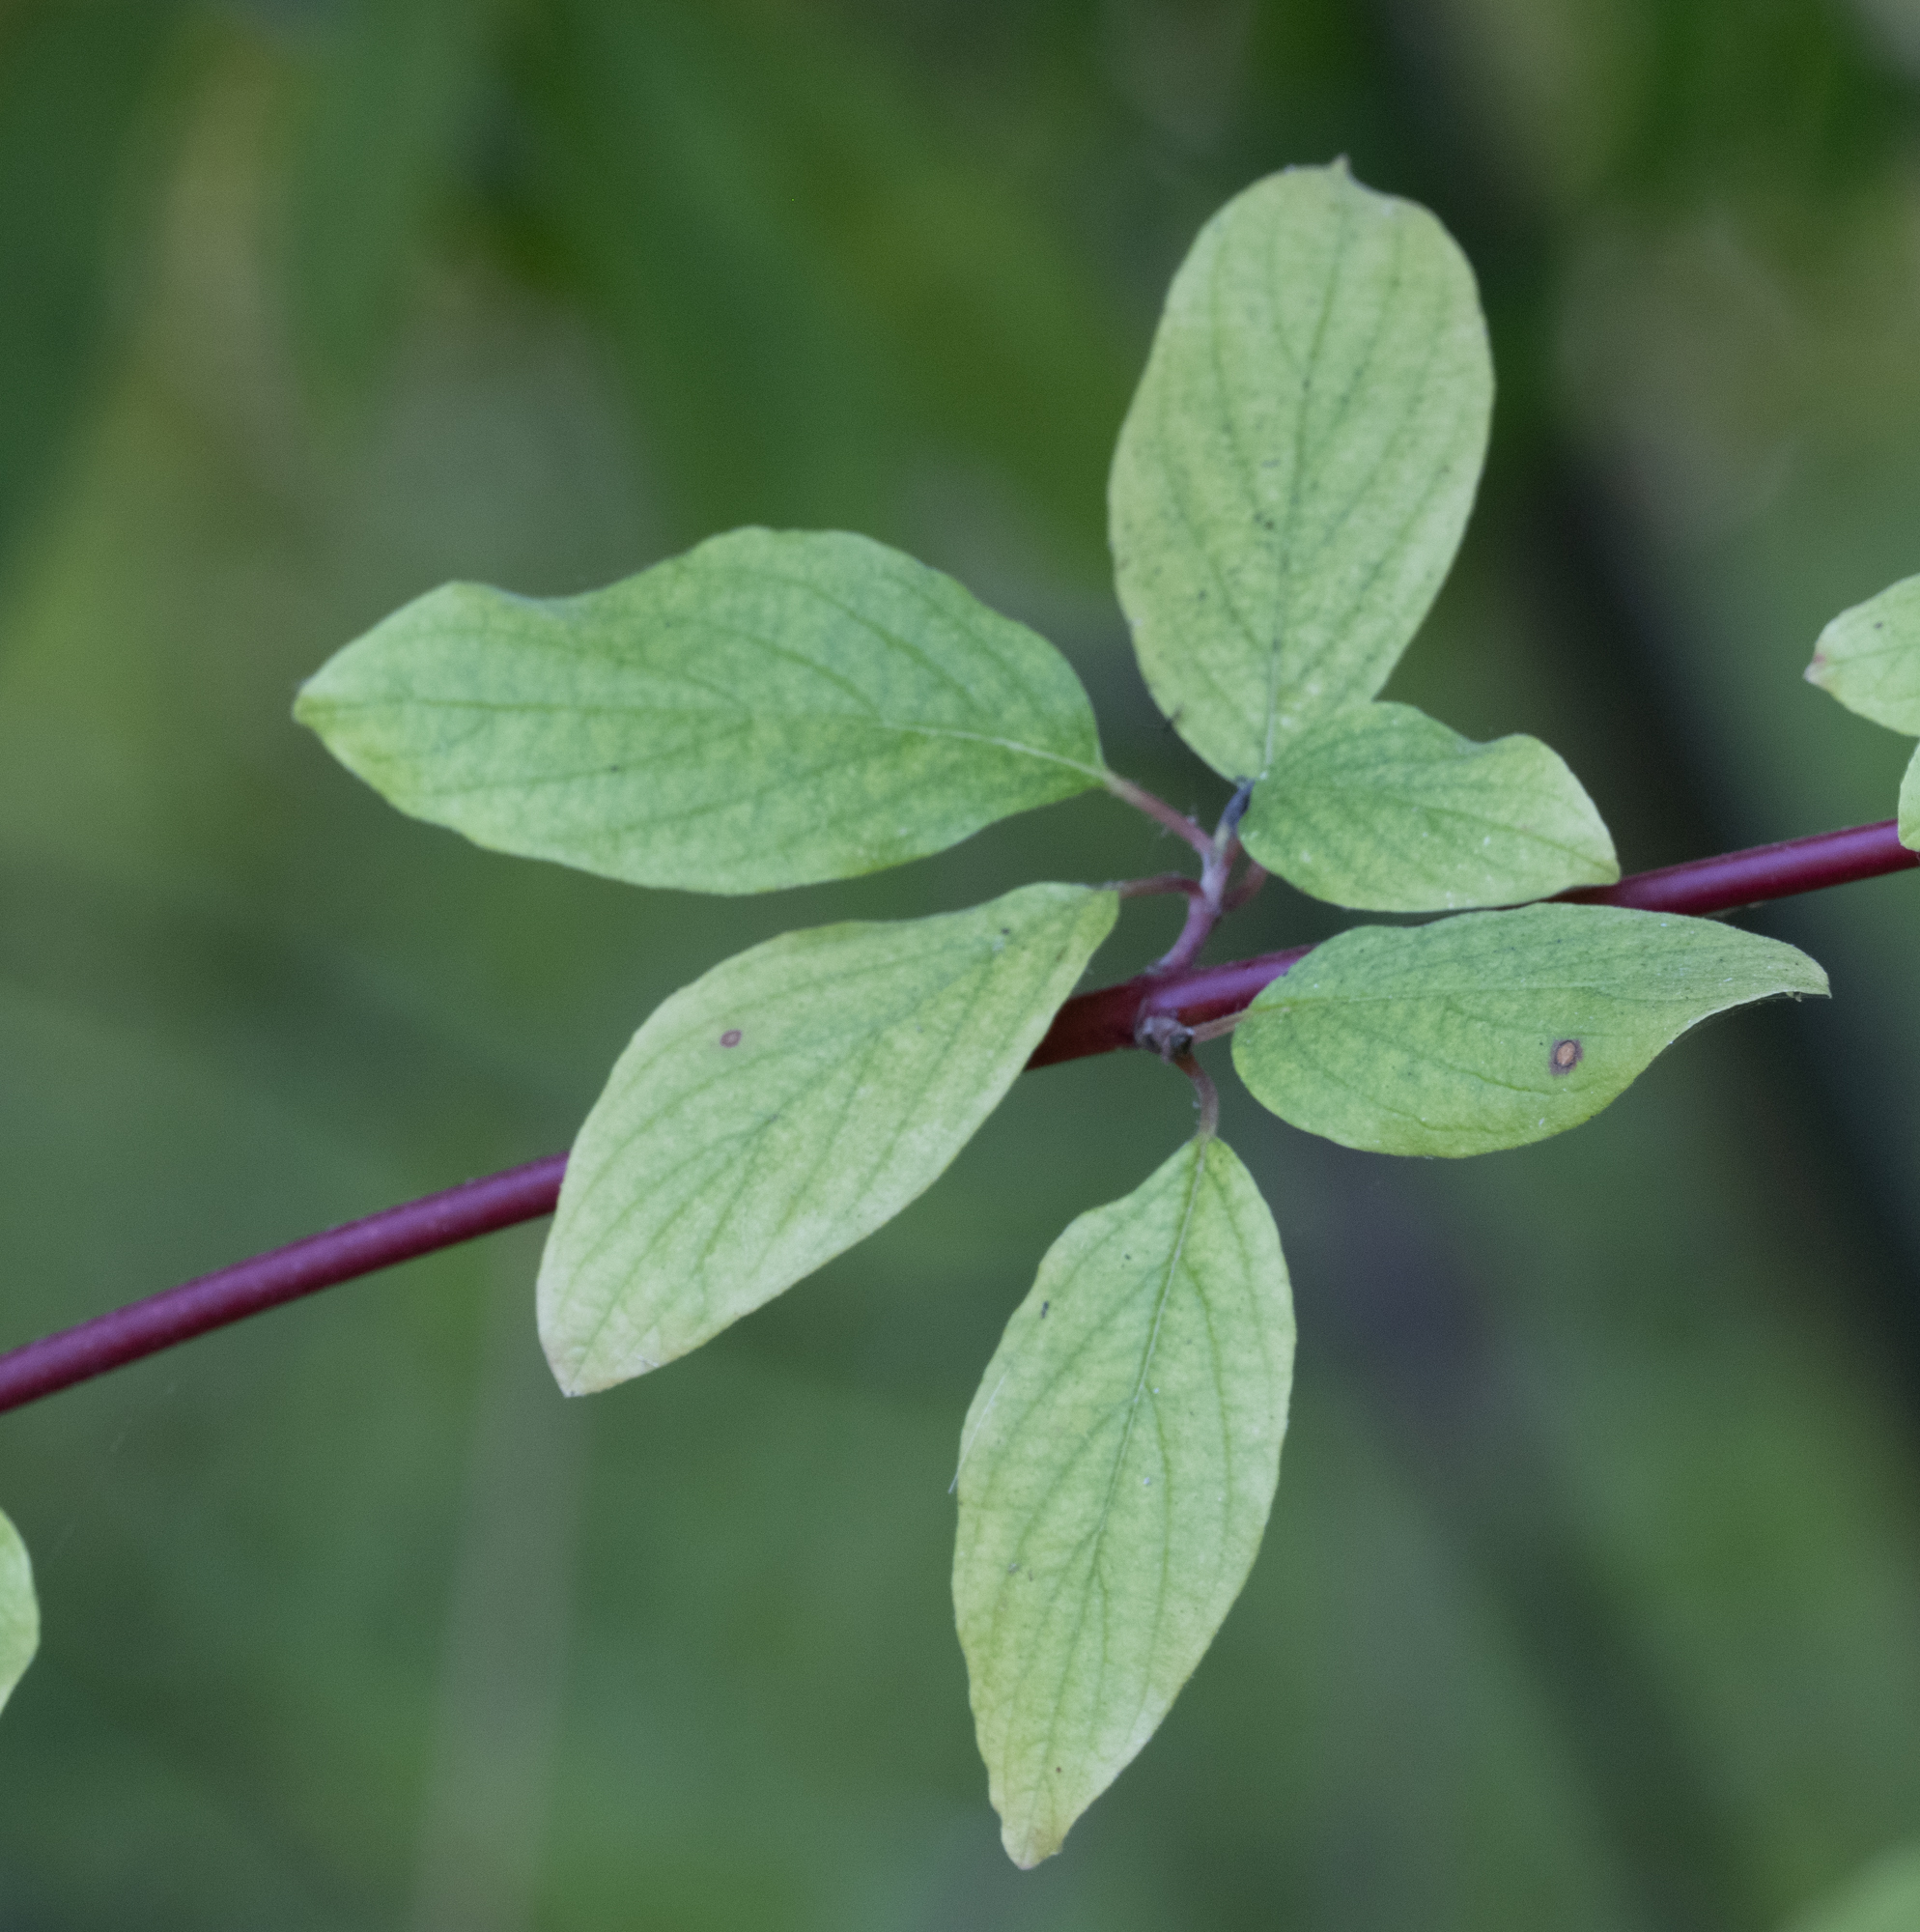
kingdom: Plantae
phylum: Tracheophyta
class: Magnoliopsida
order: Cornales
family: Cornaceae
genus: Cornus
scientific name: Cornus sericea
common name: Red-osier dogwood
